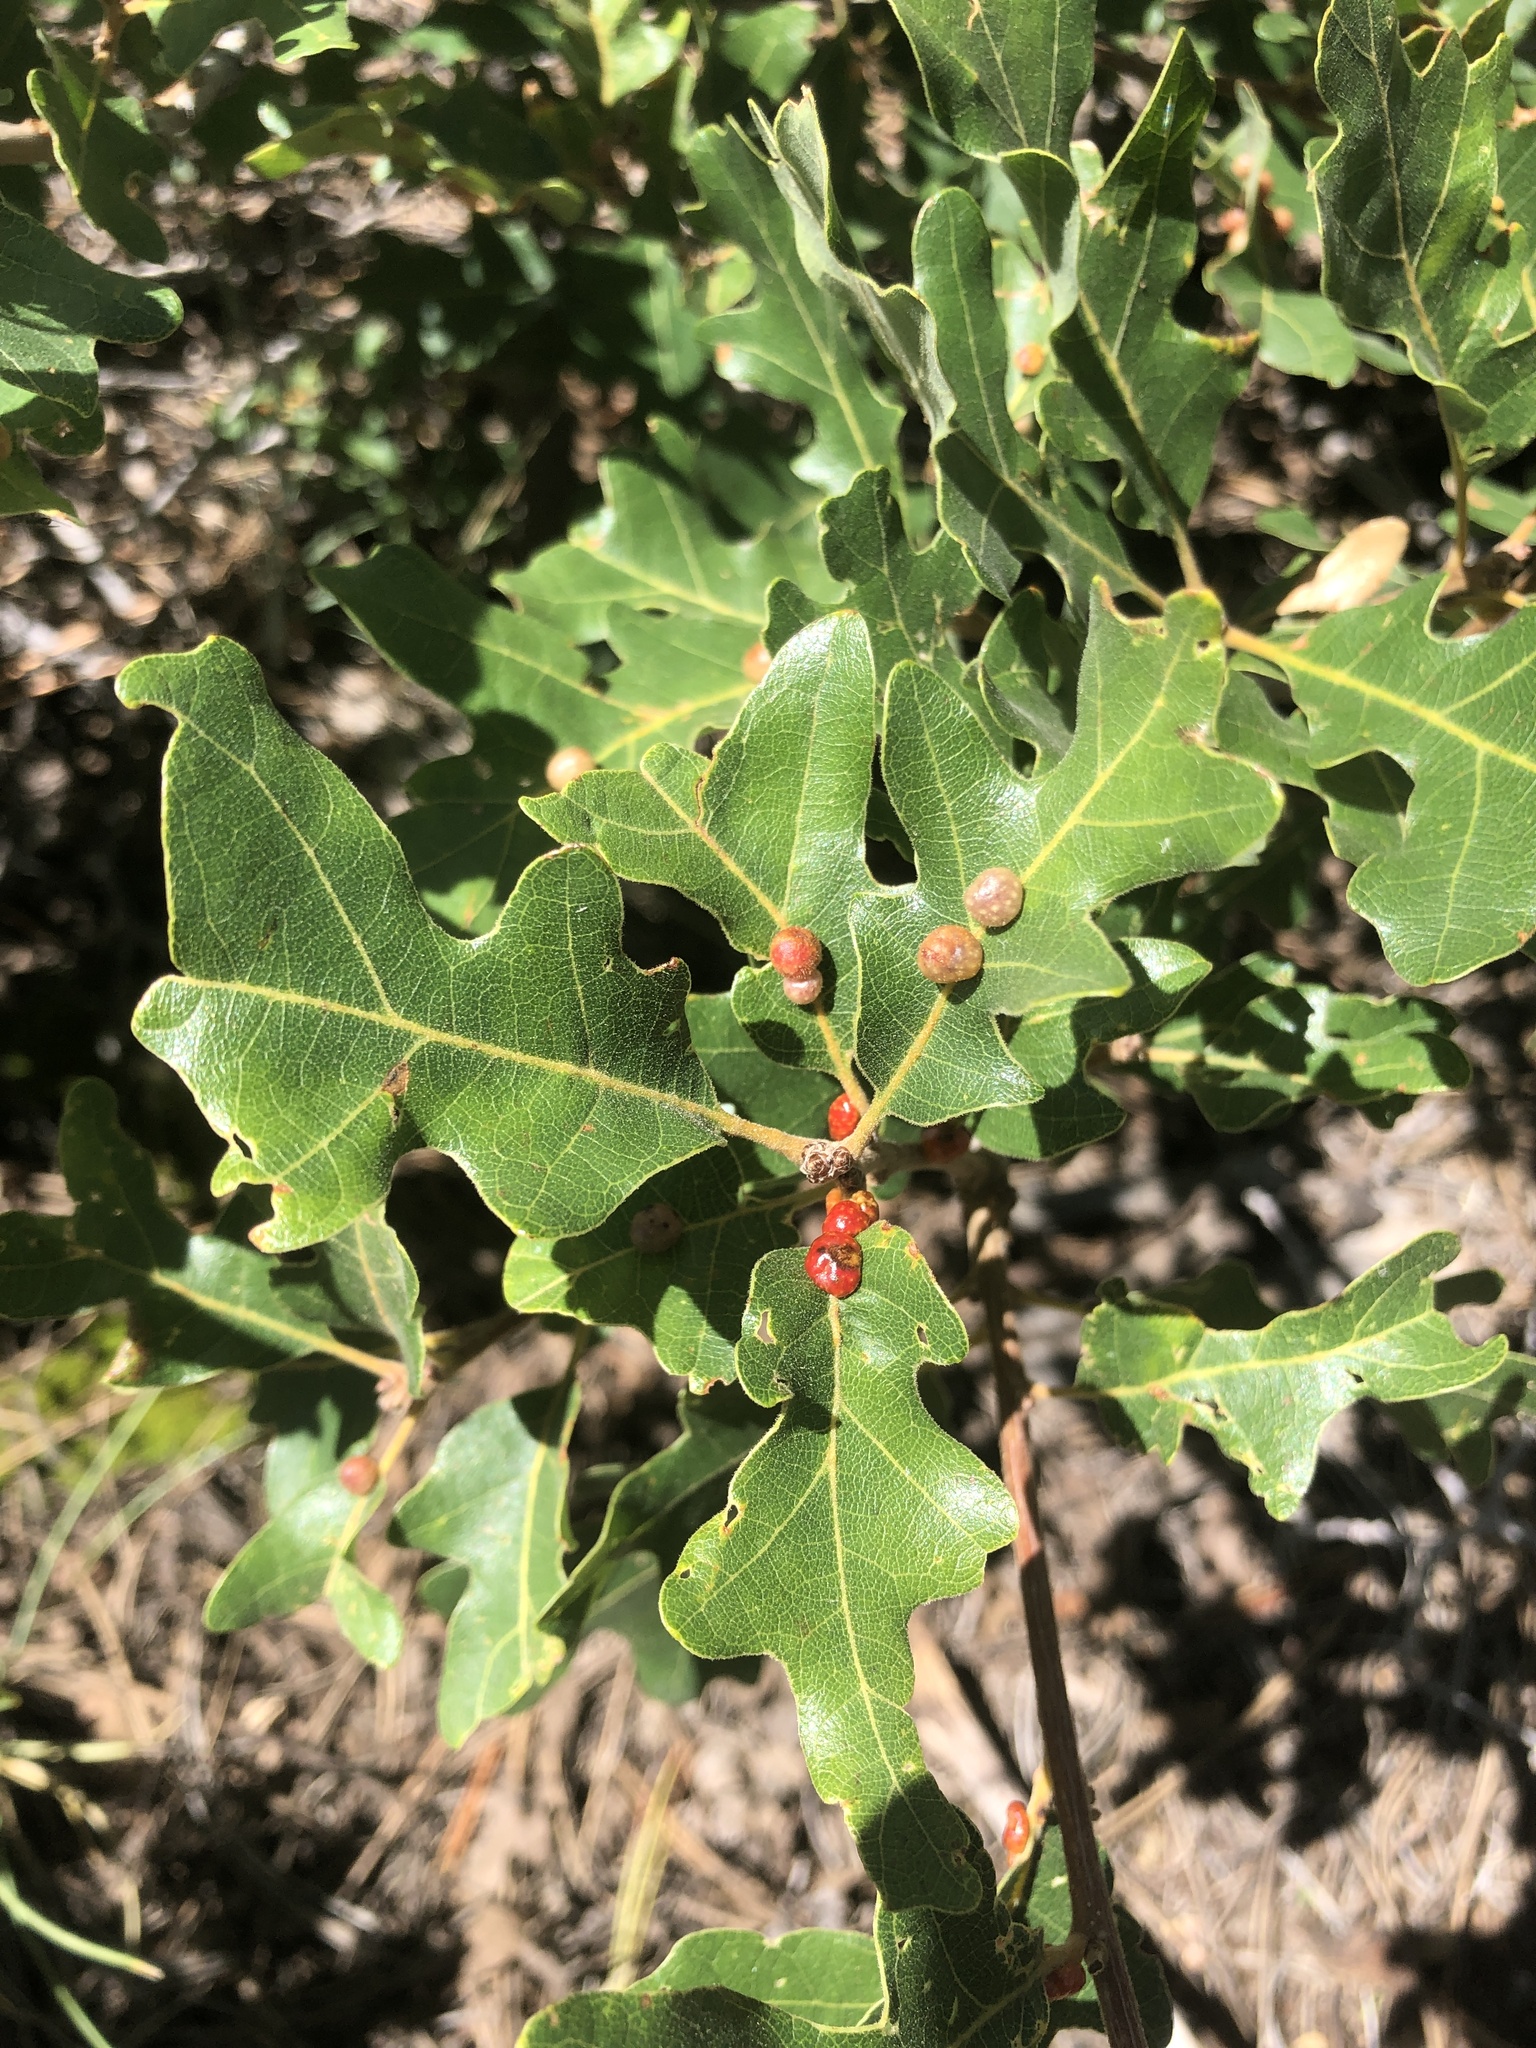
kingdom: Animalia
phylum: Arthropoda
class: Insecta
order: Hymenoptera
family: Cynipidae
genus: Trigonaspis
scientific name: Trigonaspis
